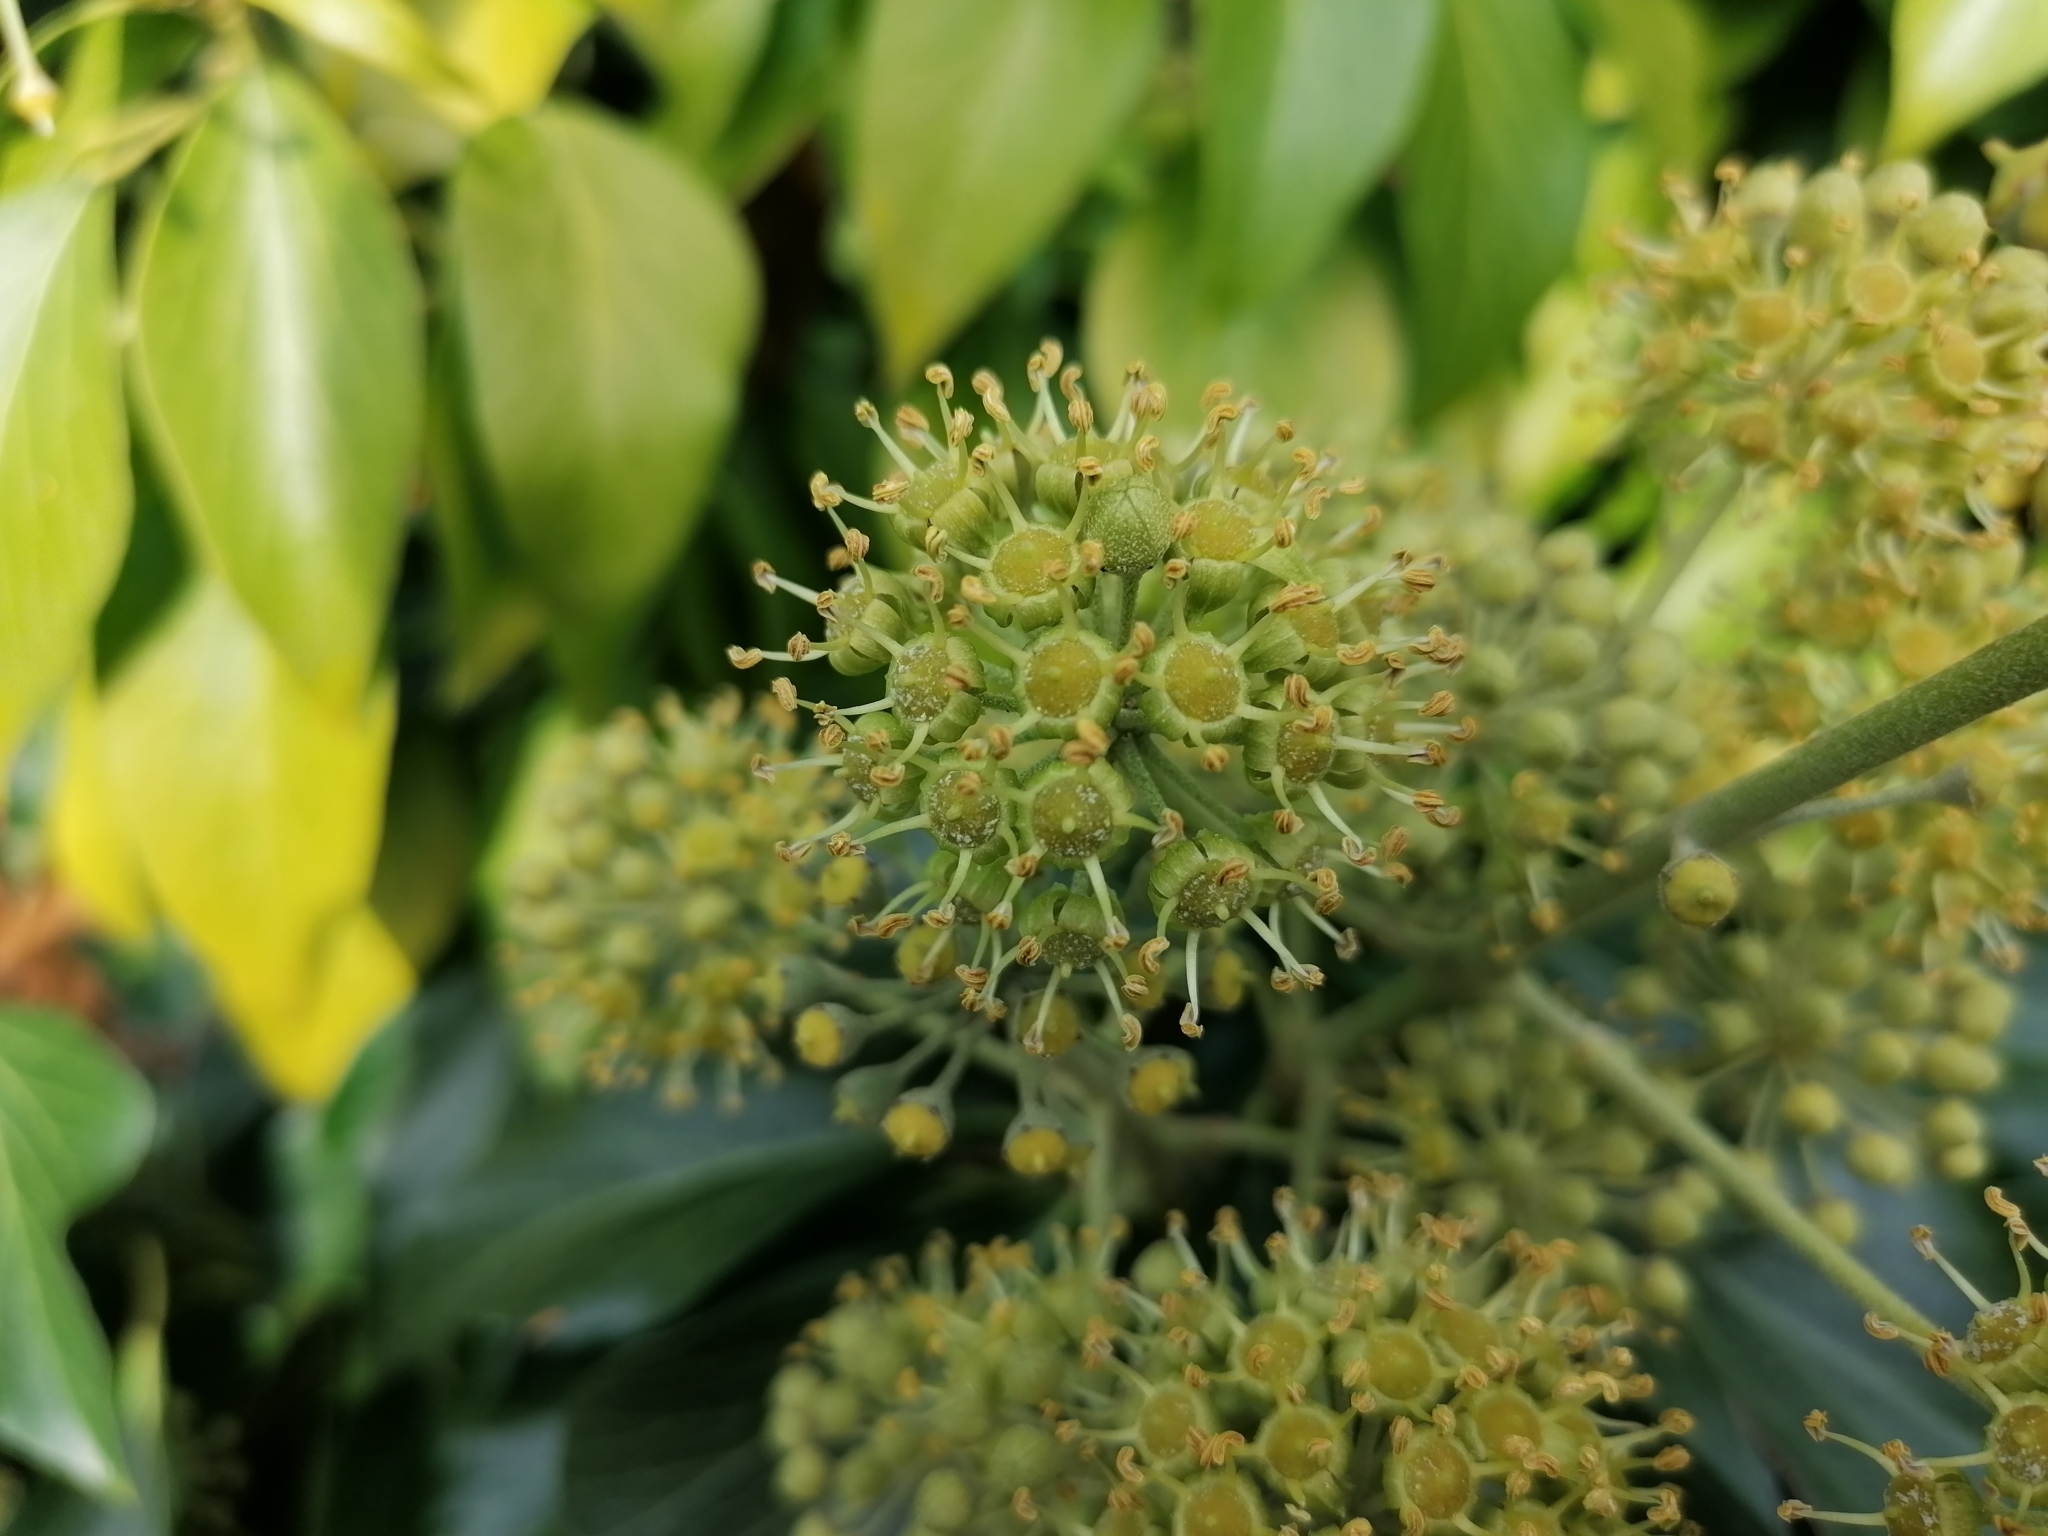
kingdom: Plantae
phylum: Tracheophyta
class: Magnoliopsida
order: Apiales
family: Araliaceae
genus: Hedera
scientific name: Hedera helix
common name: Ivy
